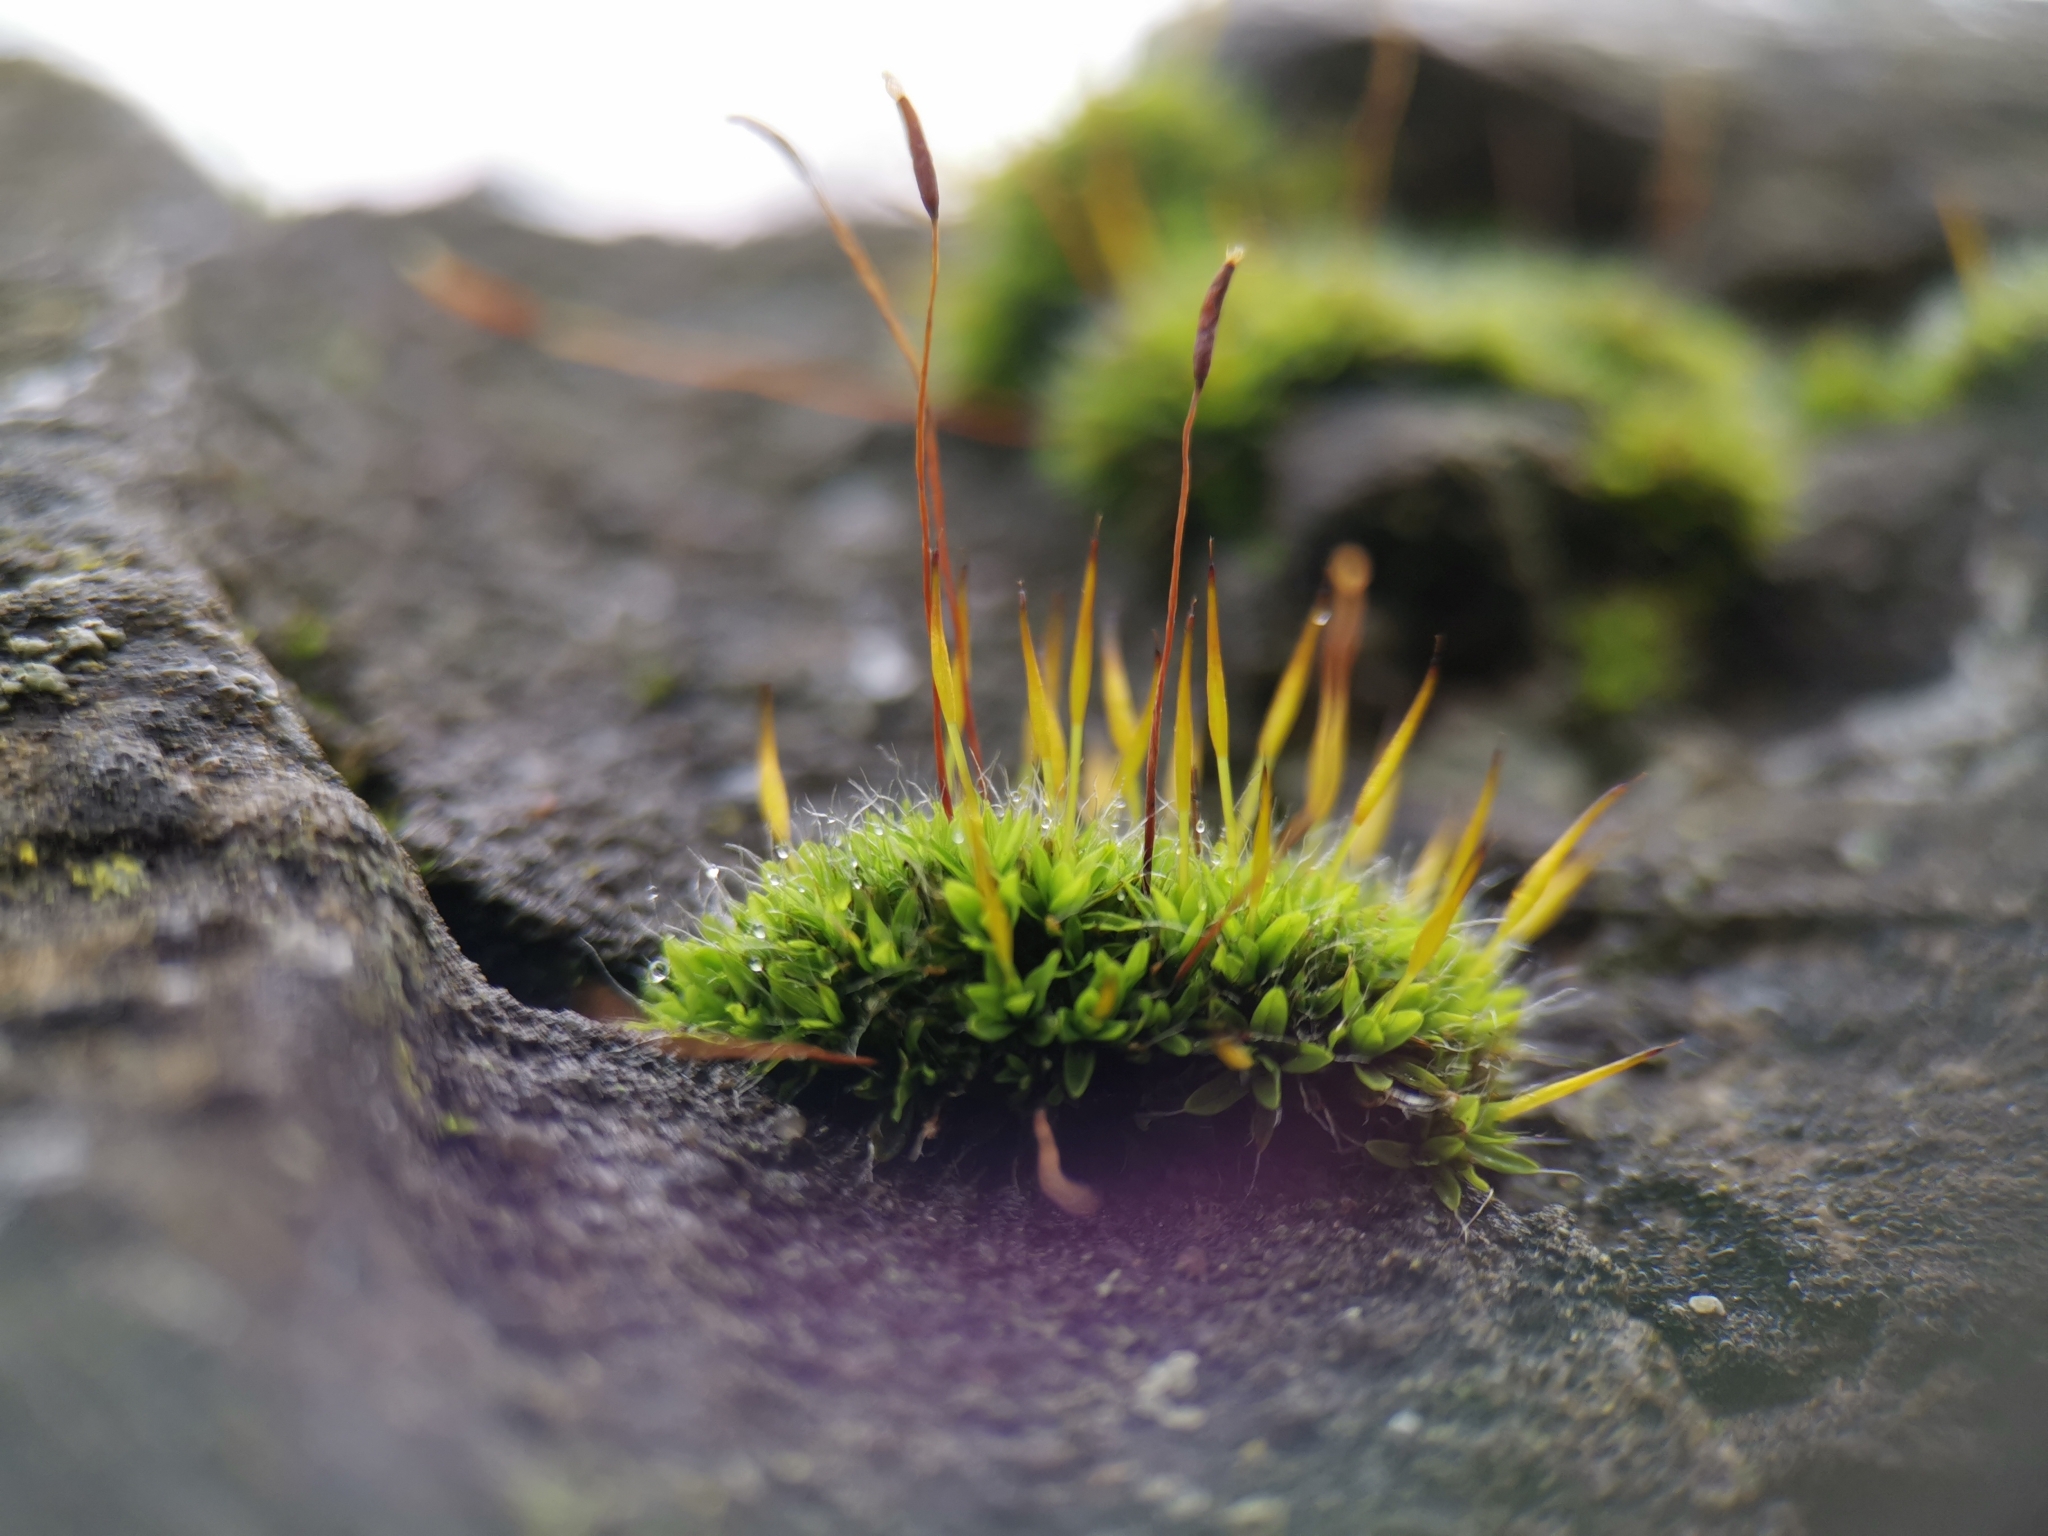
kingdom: Plantae
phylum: Bryophyta
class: Bryopsida
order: Pottiales
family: Pottiaceae
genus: Tortula
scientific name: Tortula muralis
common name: Wall screw-moss
